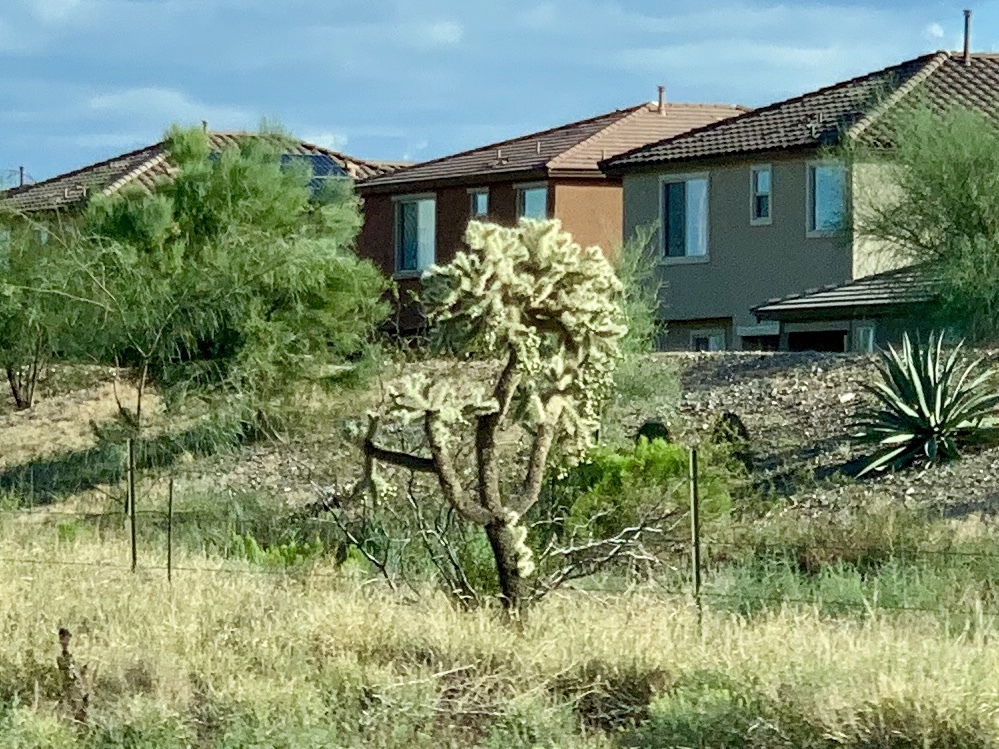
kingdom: Plantae
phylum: Tracheophyta
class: Magnoliopsida
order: Caryophyllales
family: Cactaceae
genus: Cylindropuntia
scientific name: Cylindropuntia fulgida
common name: Jumping cholla
